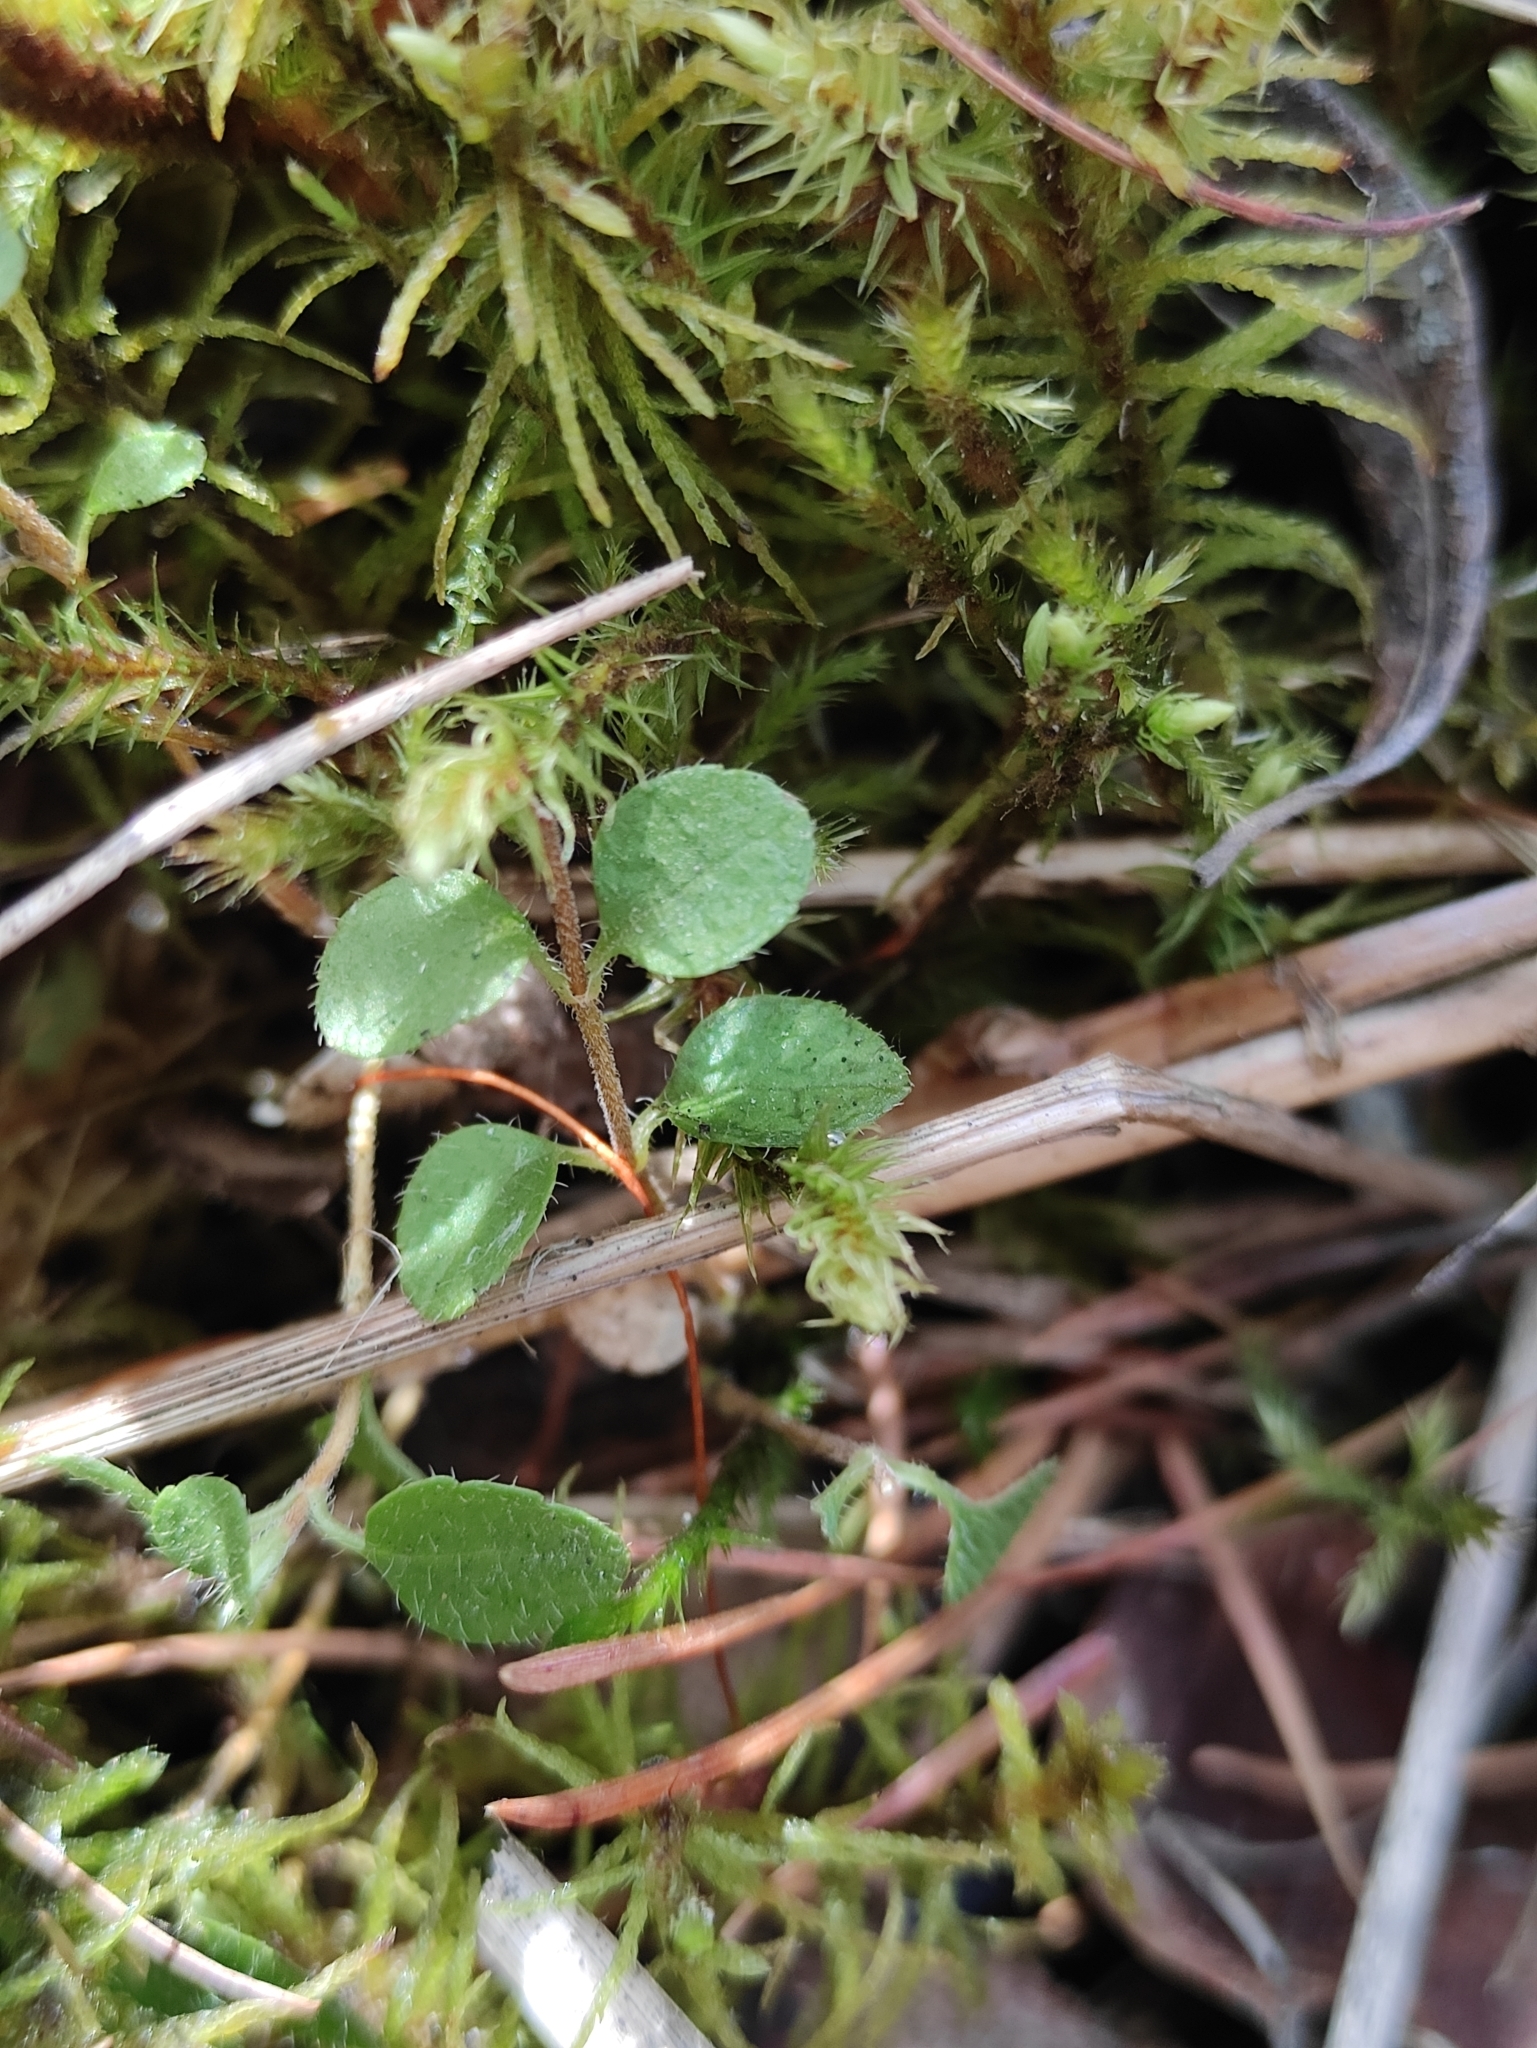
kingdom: Plantae
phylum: Tracheophyta
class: Magnoliopsida
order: Dipsacales
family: Caprifoliaceae
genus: Linnaea
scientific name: Linnaea borealis
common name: Twinflower
